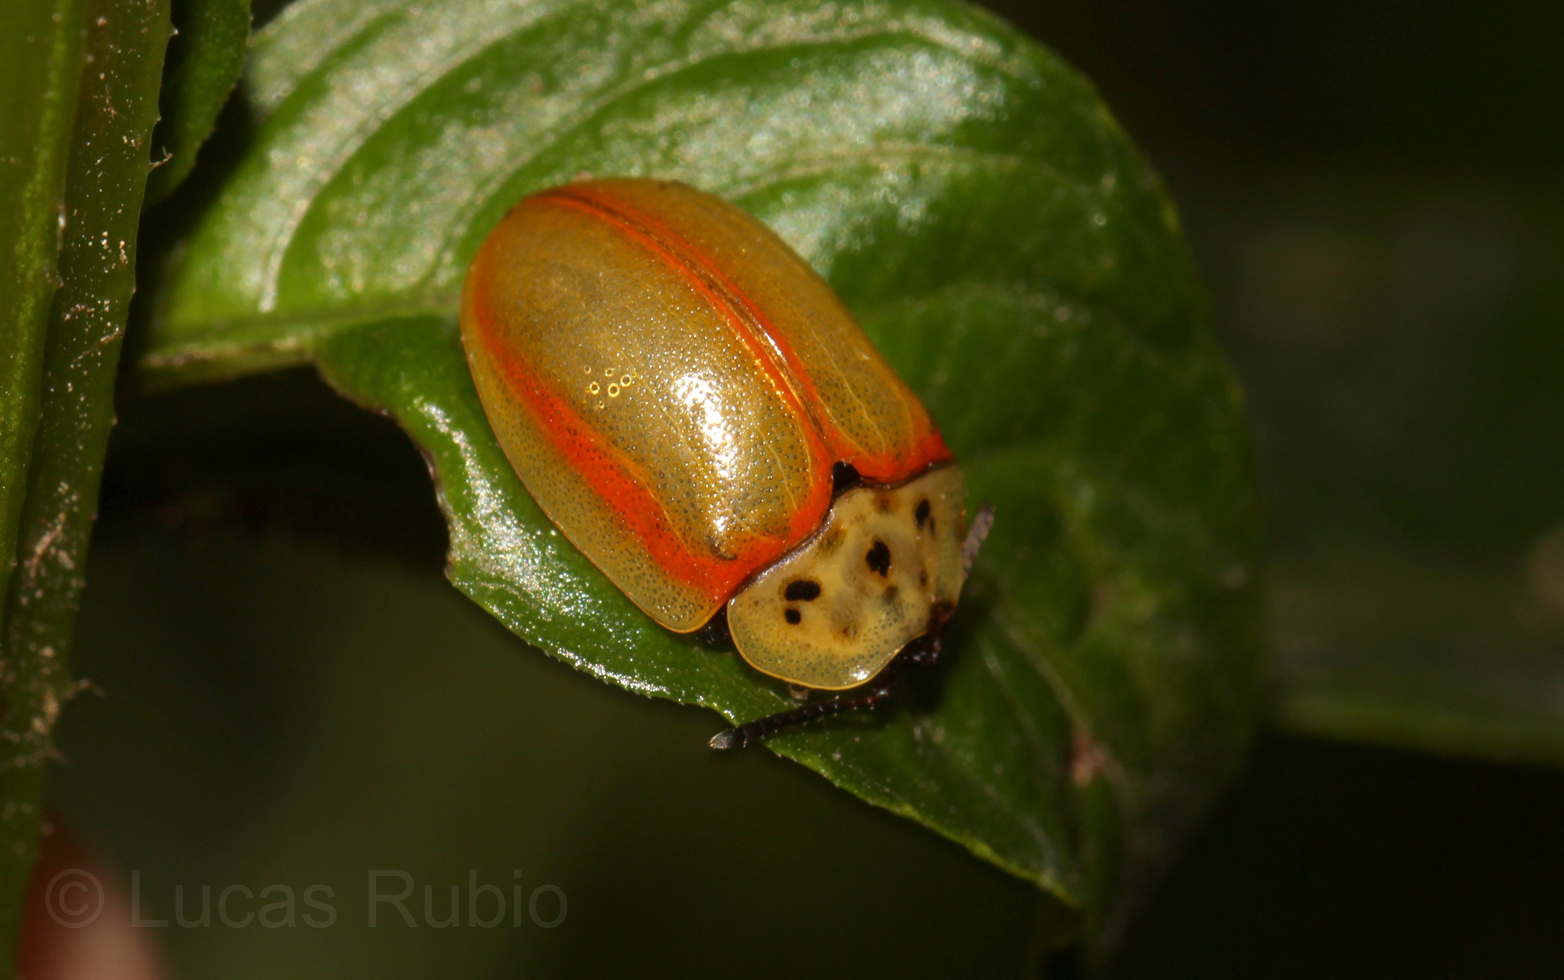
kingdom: Animalia
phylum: Arthropoda
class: Insecta
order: Coleoptera
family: Chrysomelidae
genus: Anacassis
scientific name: Anacassis cribrum
